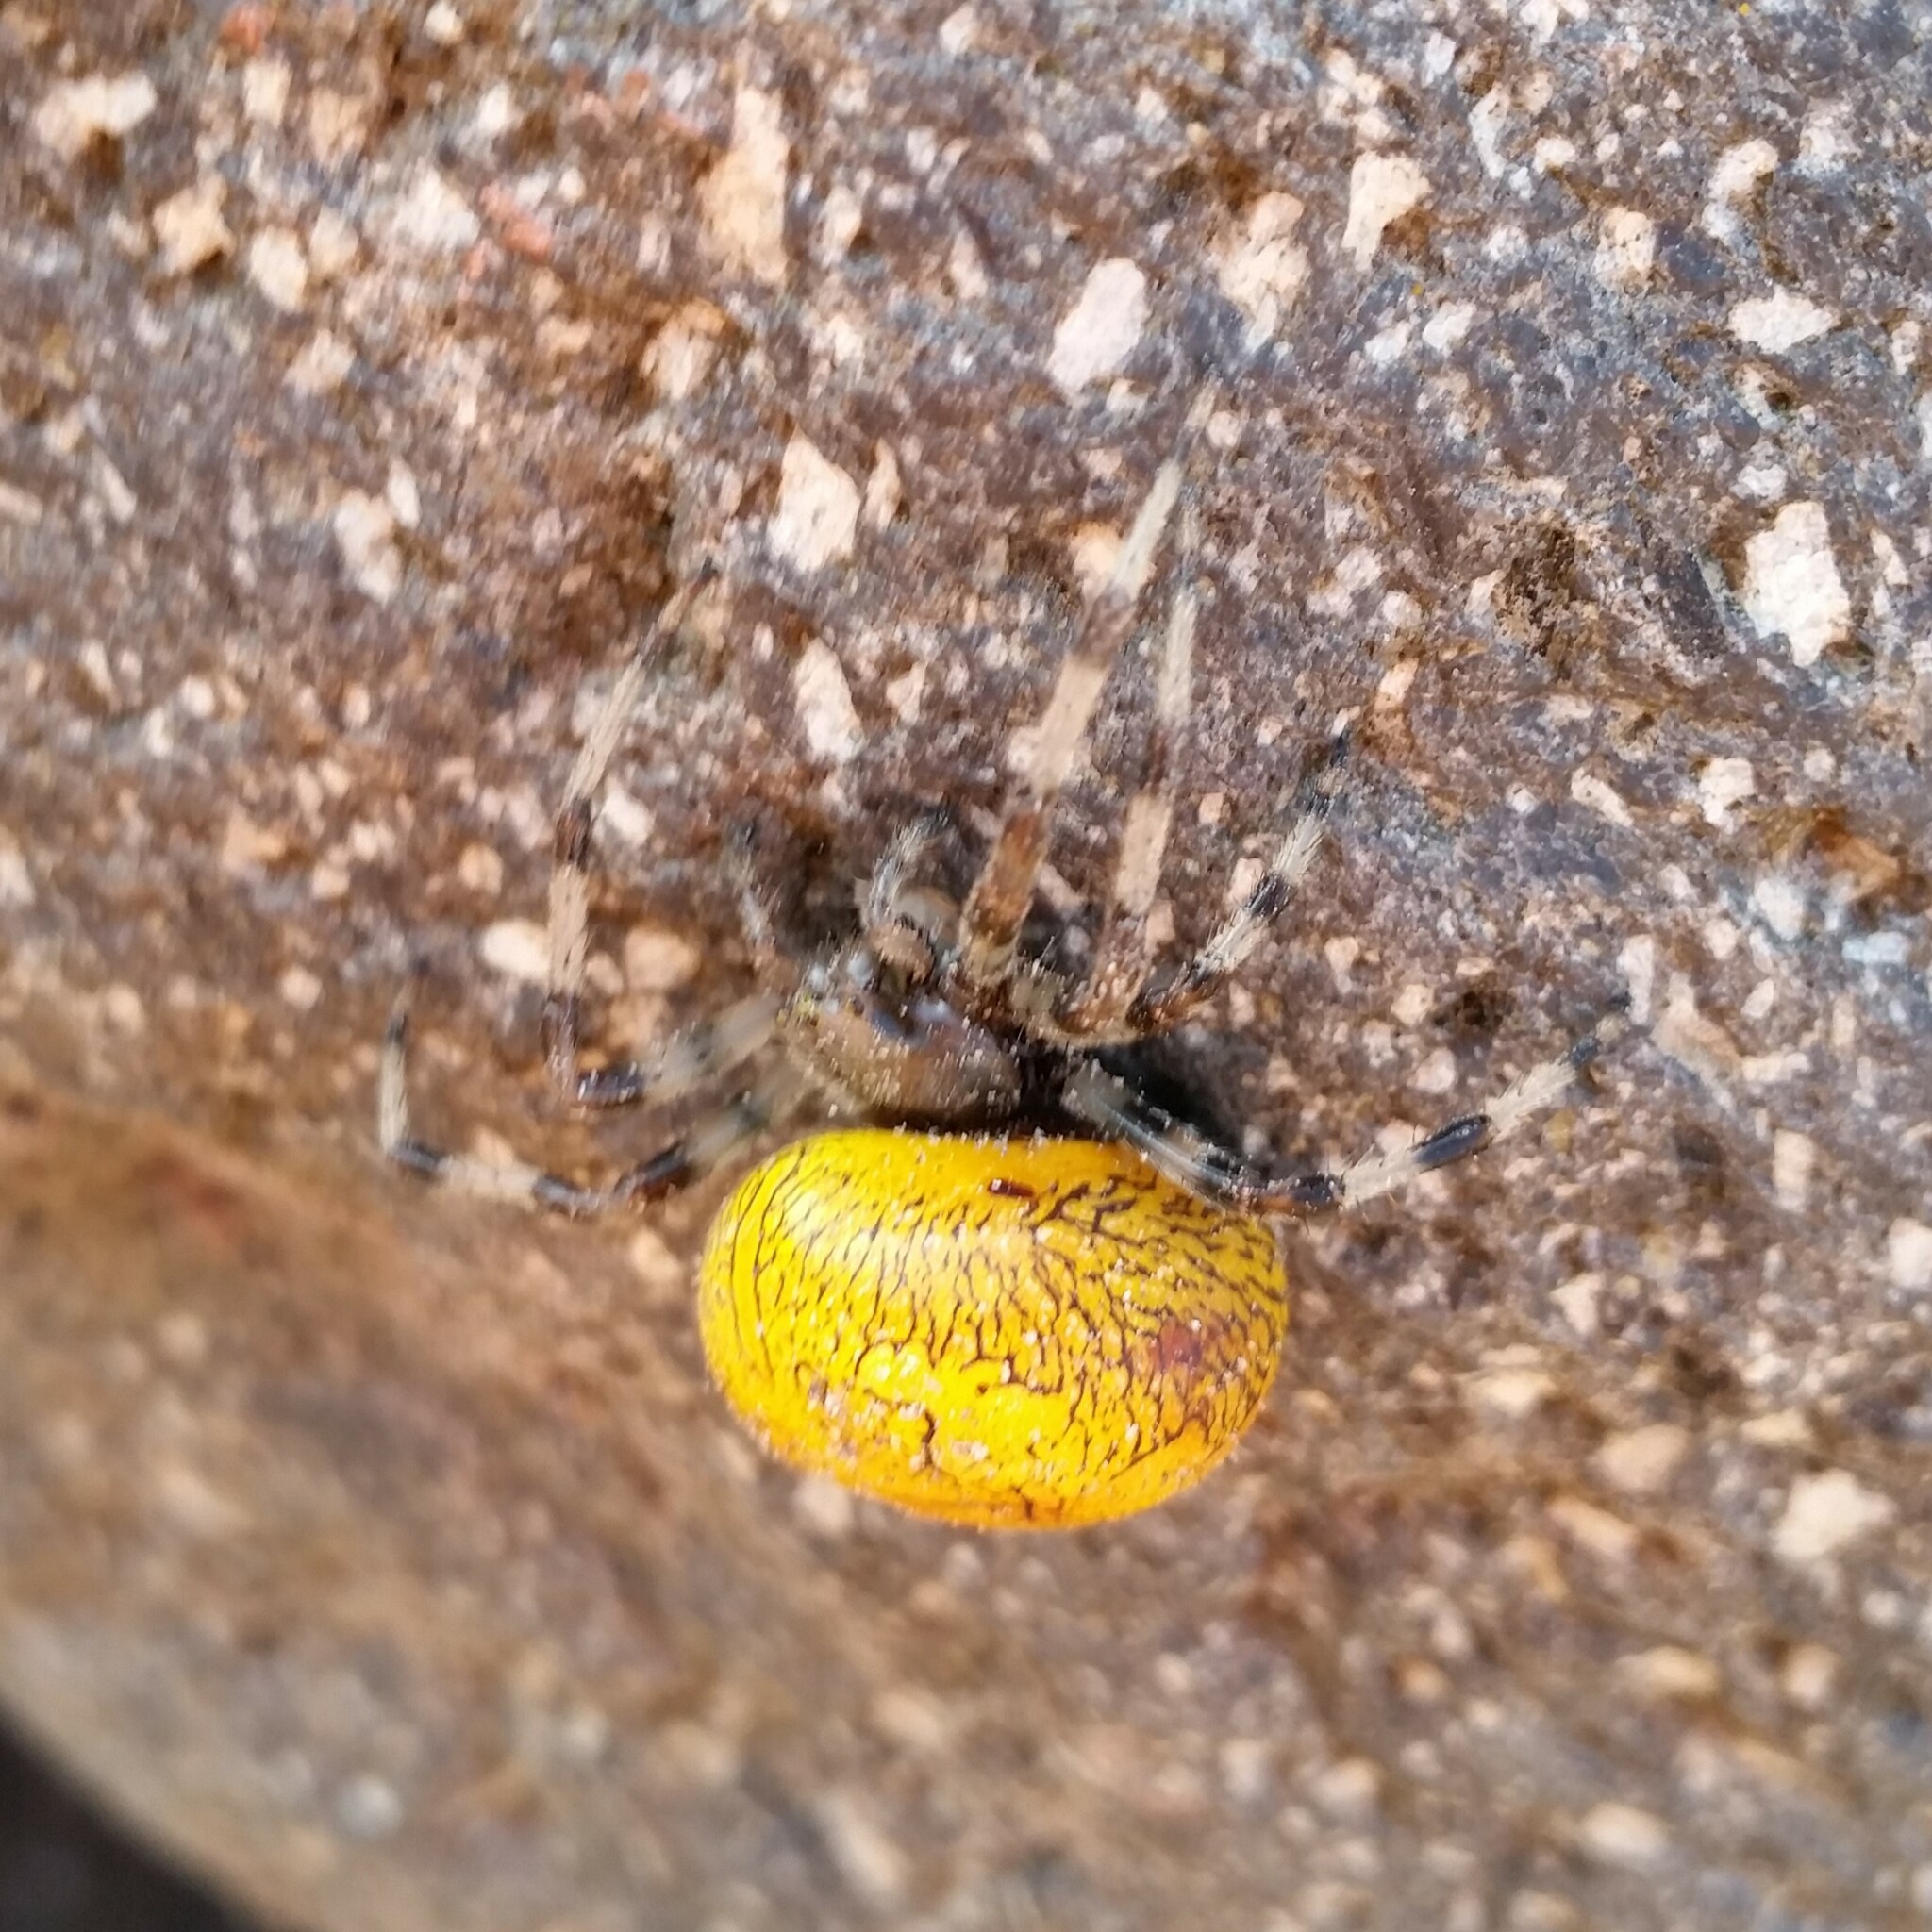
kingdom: Animalia
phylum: Arthropoda
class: Arachnida
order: Araneae
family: Araneidae
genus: Araneus
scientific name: Araneus marmoreus
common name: Marbled orbweaver
